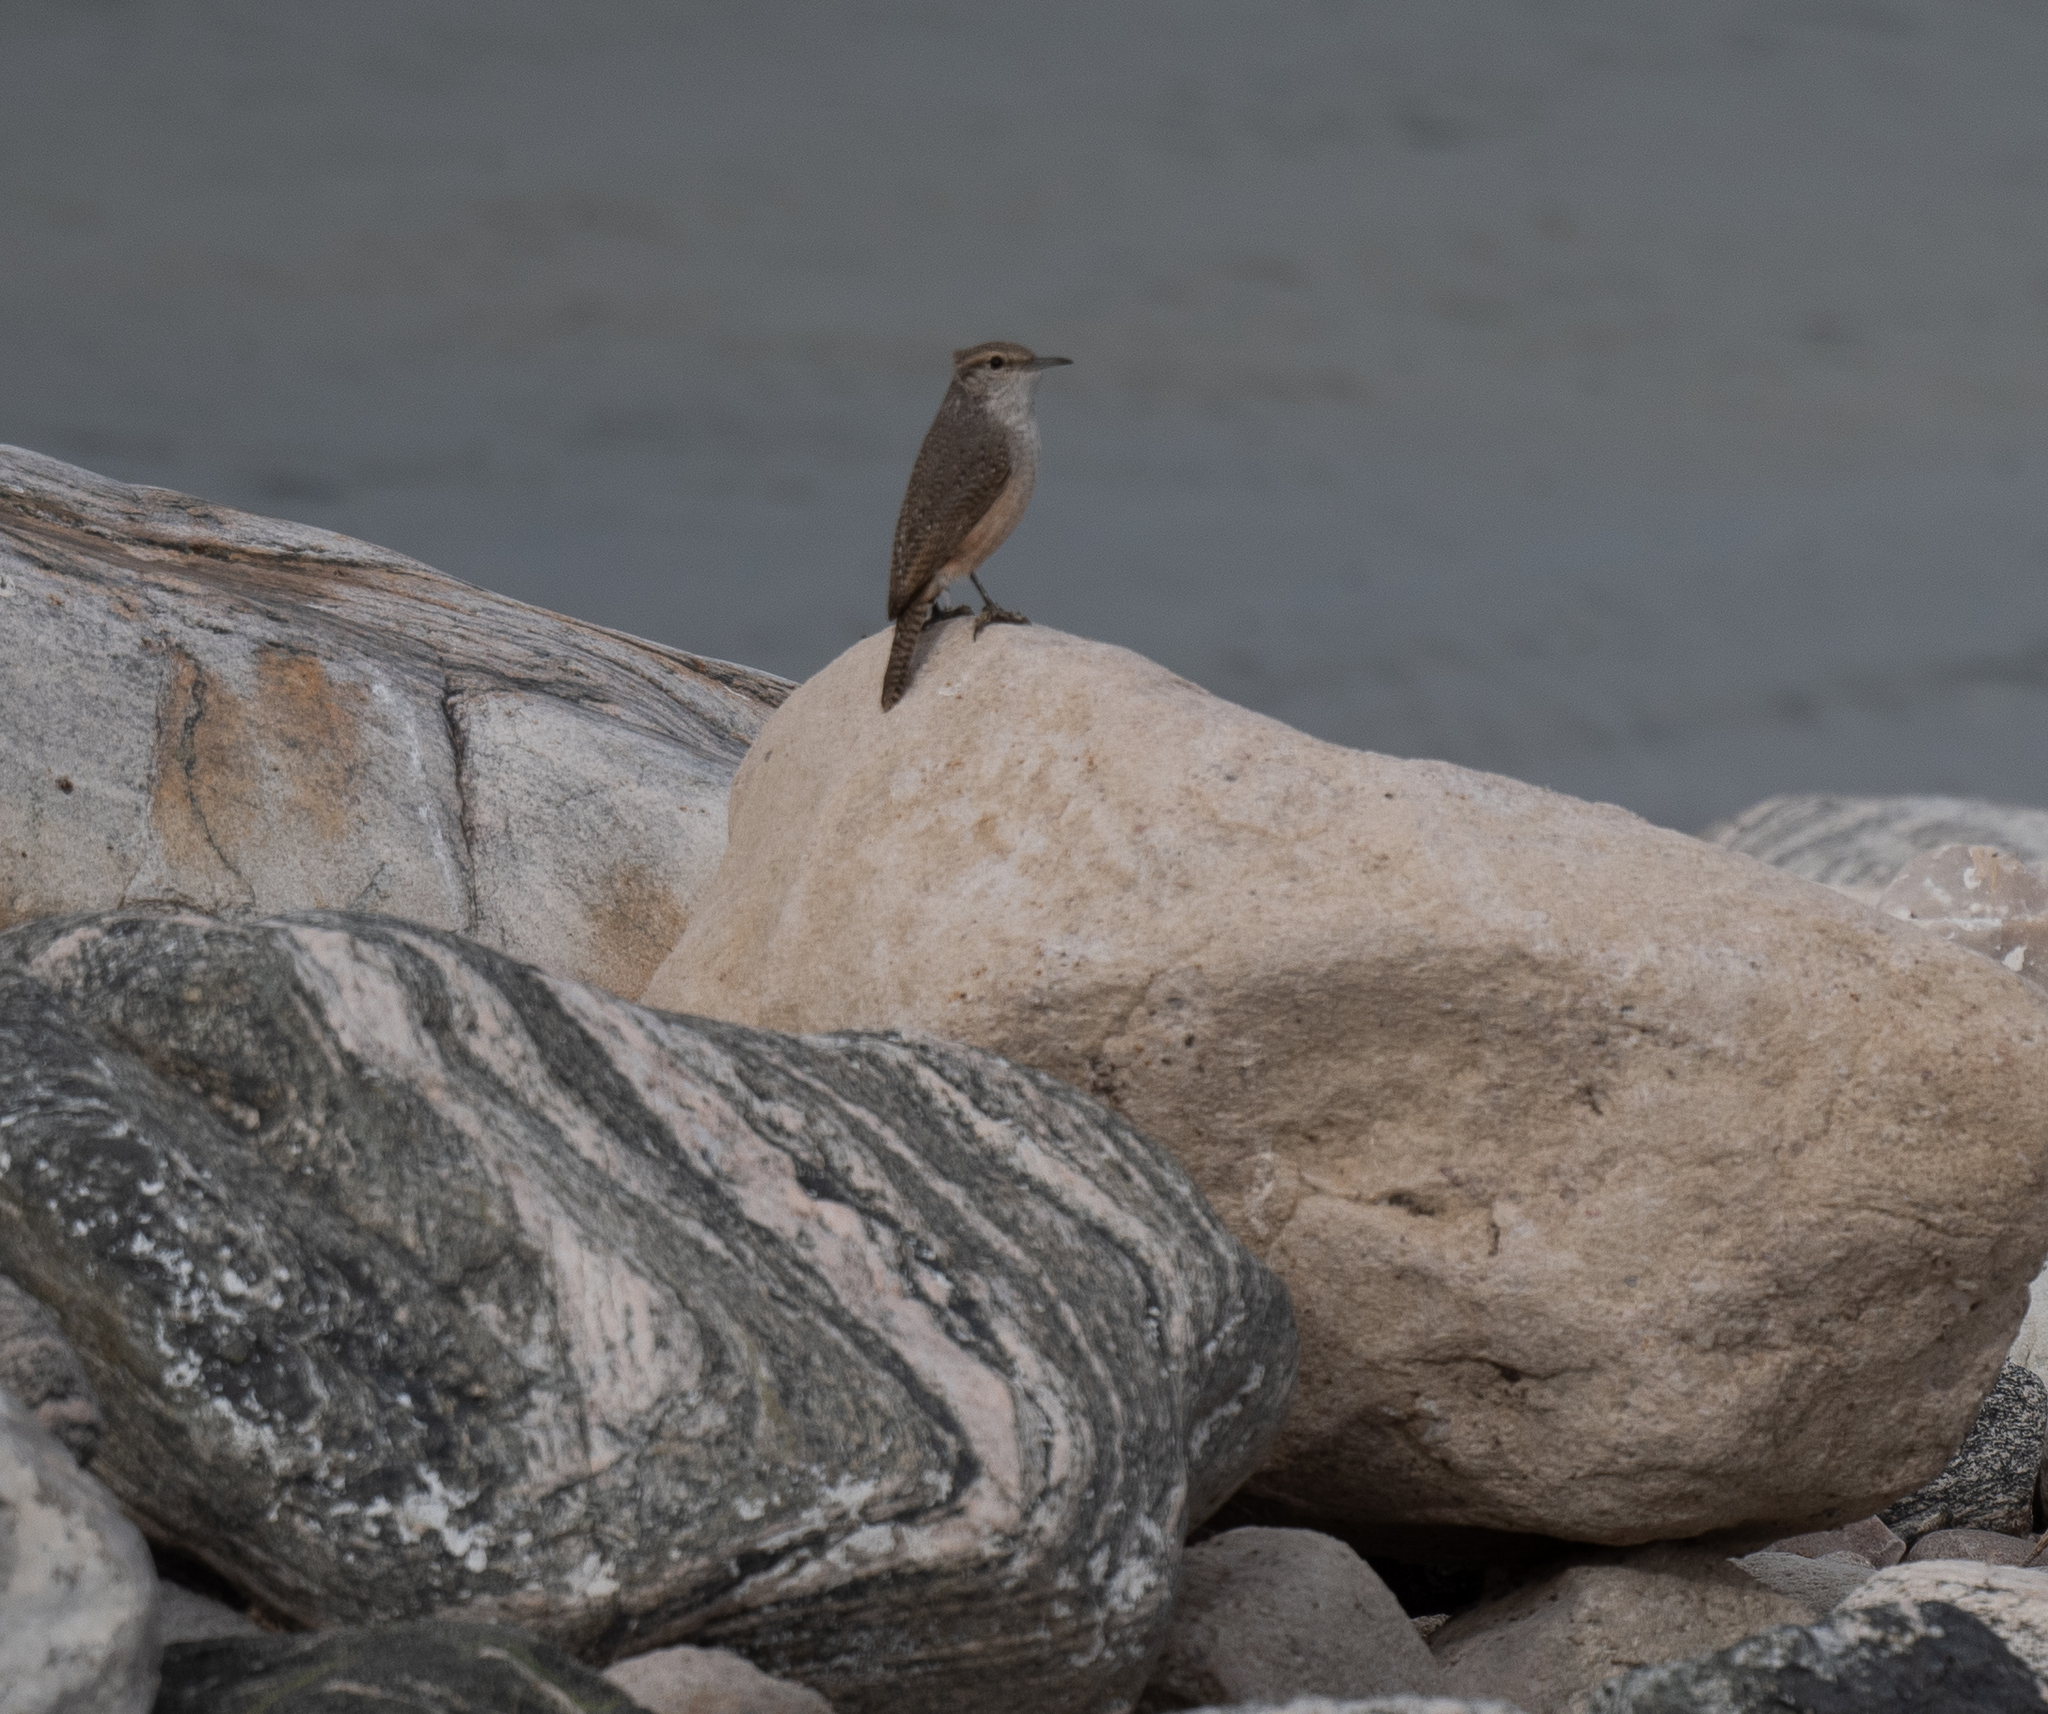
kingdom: Animalia
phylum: Chordata
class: Aves
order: Passeriformes
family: Troglodytidae
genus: Salpinctes
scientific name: Salpinctes obsoletus
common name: Rock wren
